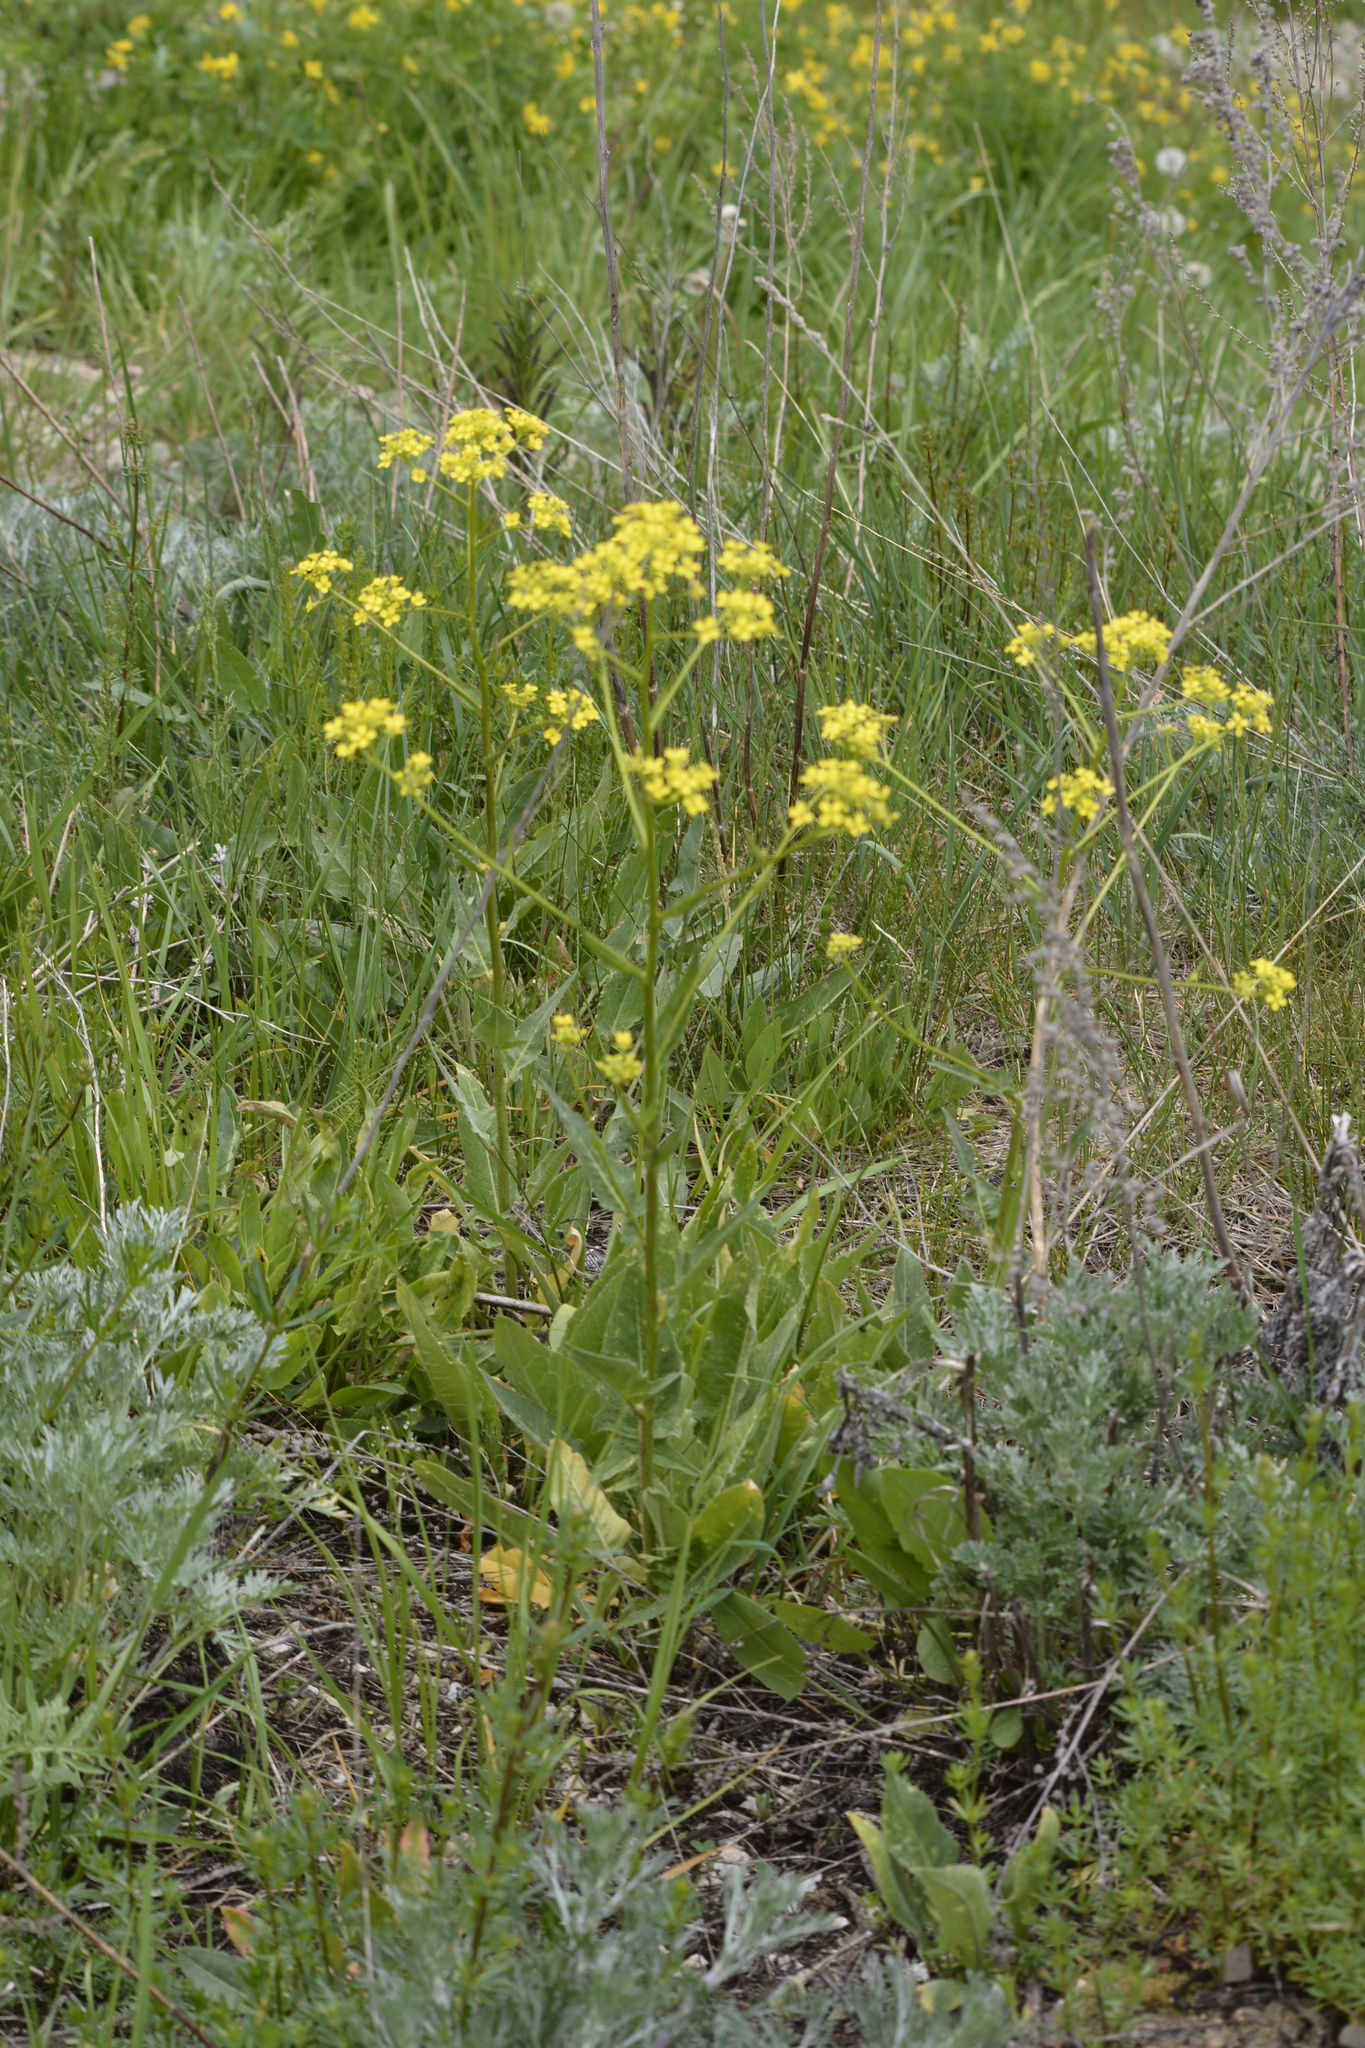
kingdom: Plantae
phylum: Tracheophyta
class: Magnoliopsida
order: Brassicales
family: Brassicaceae
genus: Bunias
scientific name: Bunias orientalis
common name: Warty-cabbage
